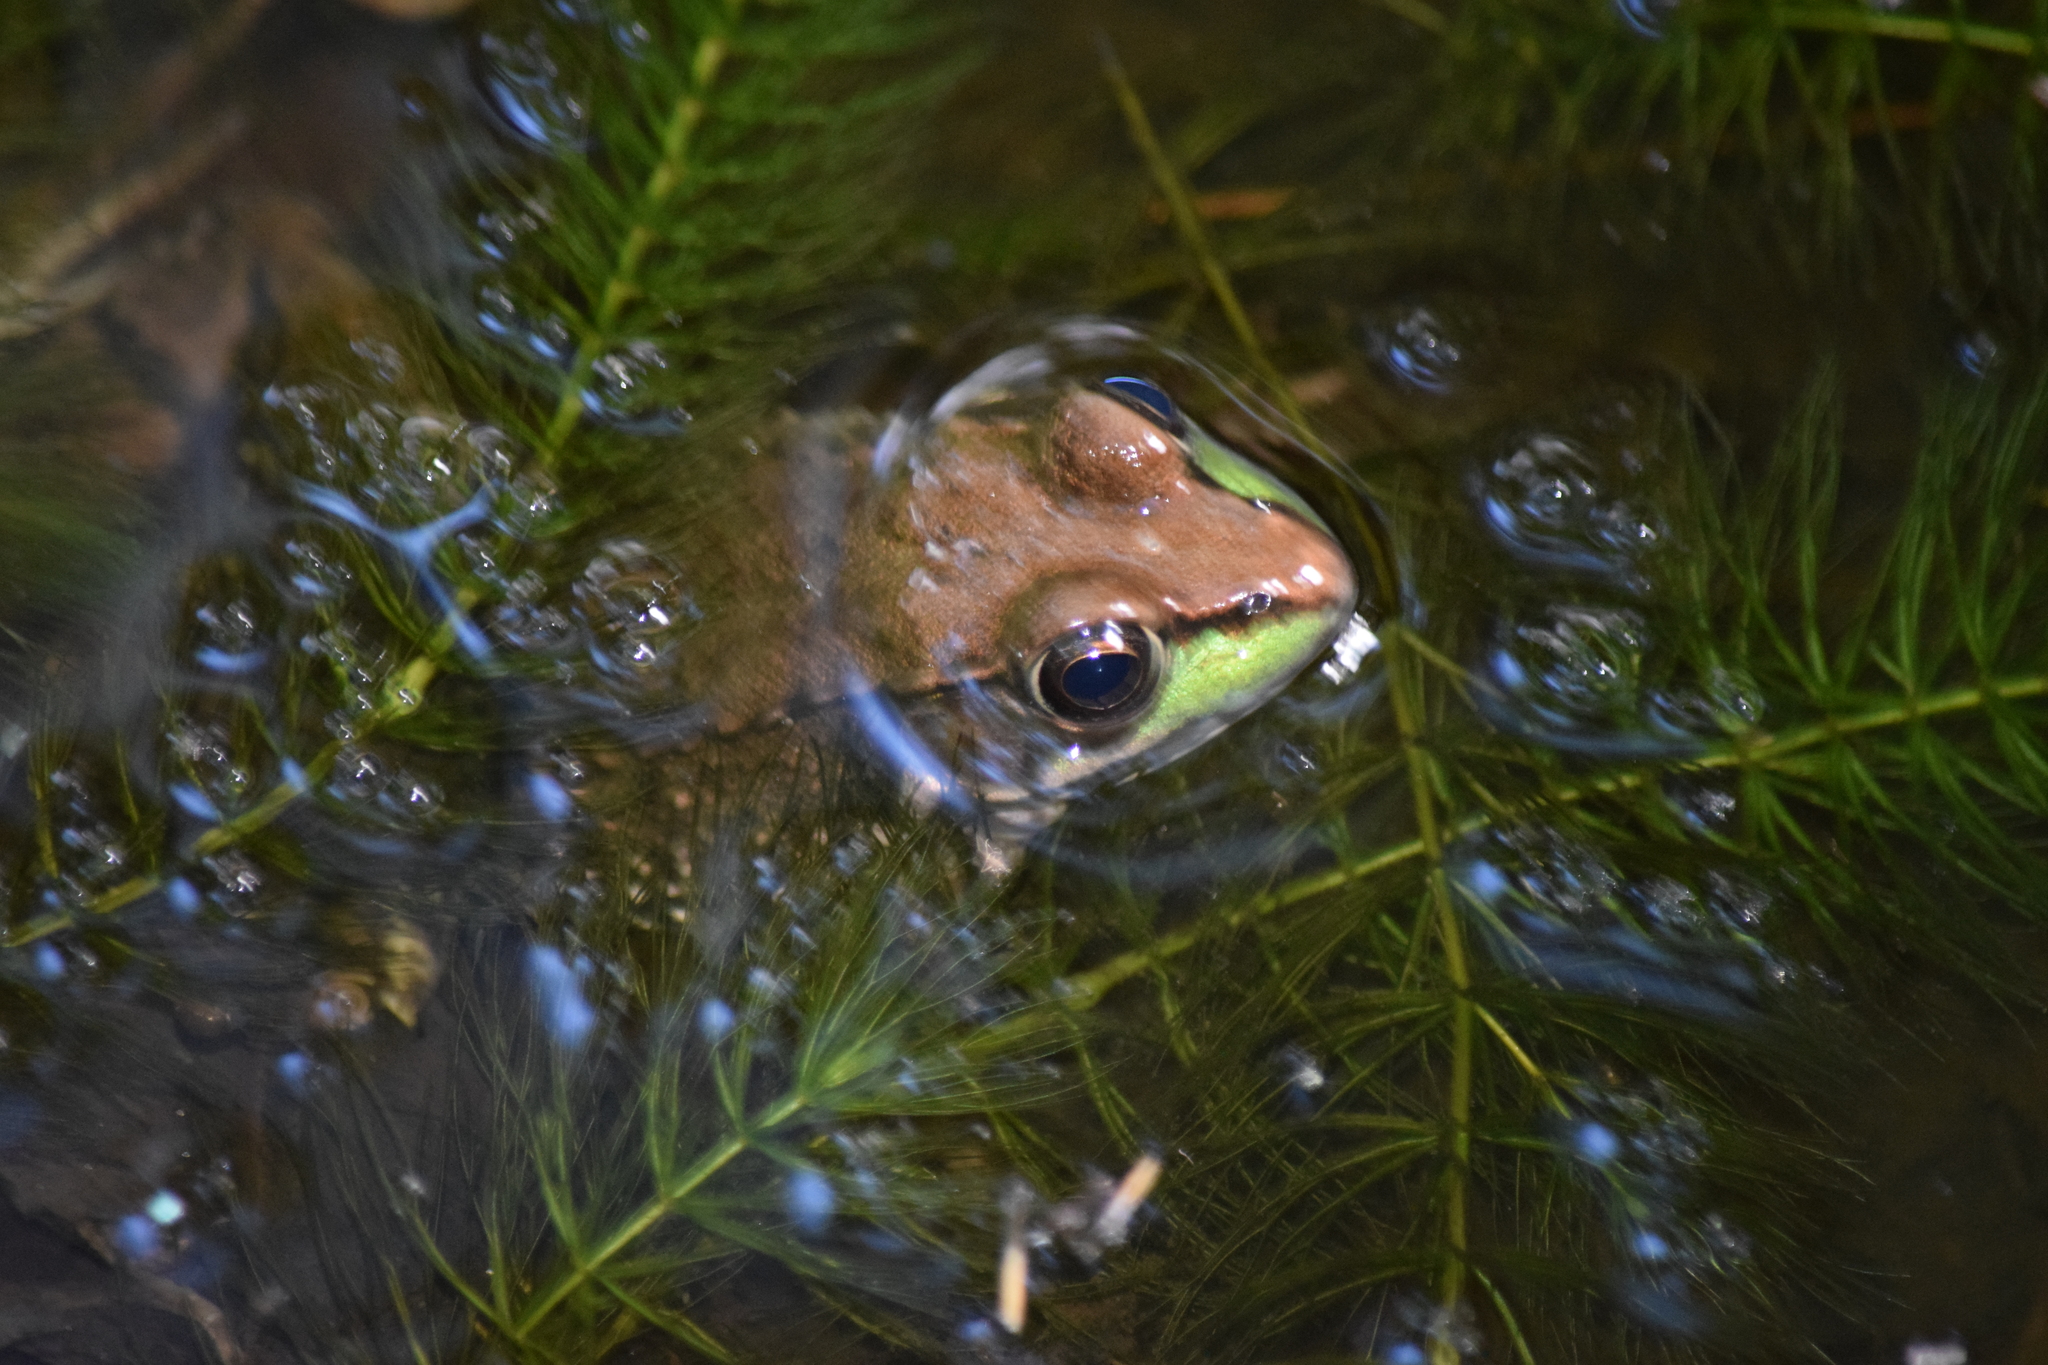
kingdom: Animalia
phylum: Chordata
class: Amphibia
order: Anura
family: Ranidae
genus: Lithobates
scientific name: Lithobates clamitans
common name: Green frog
